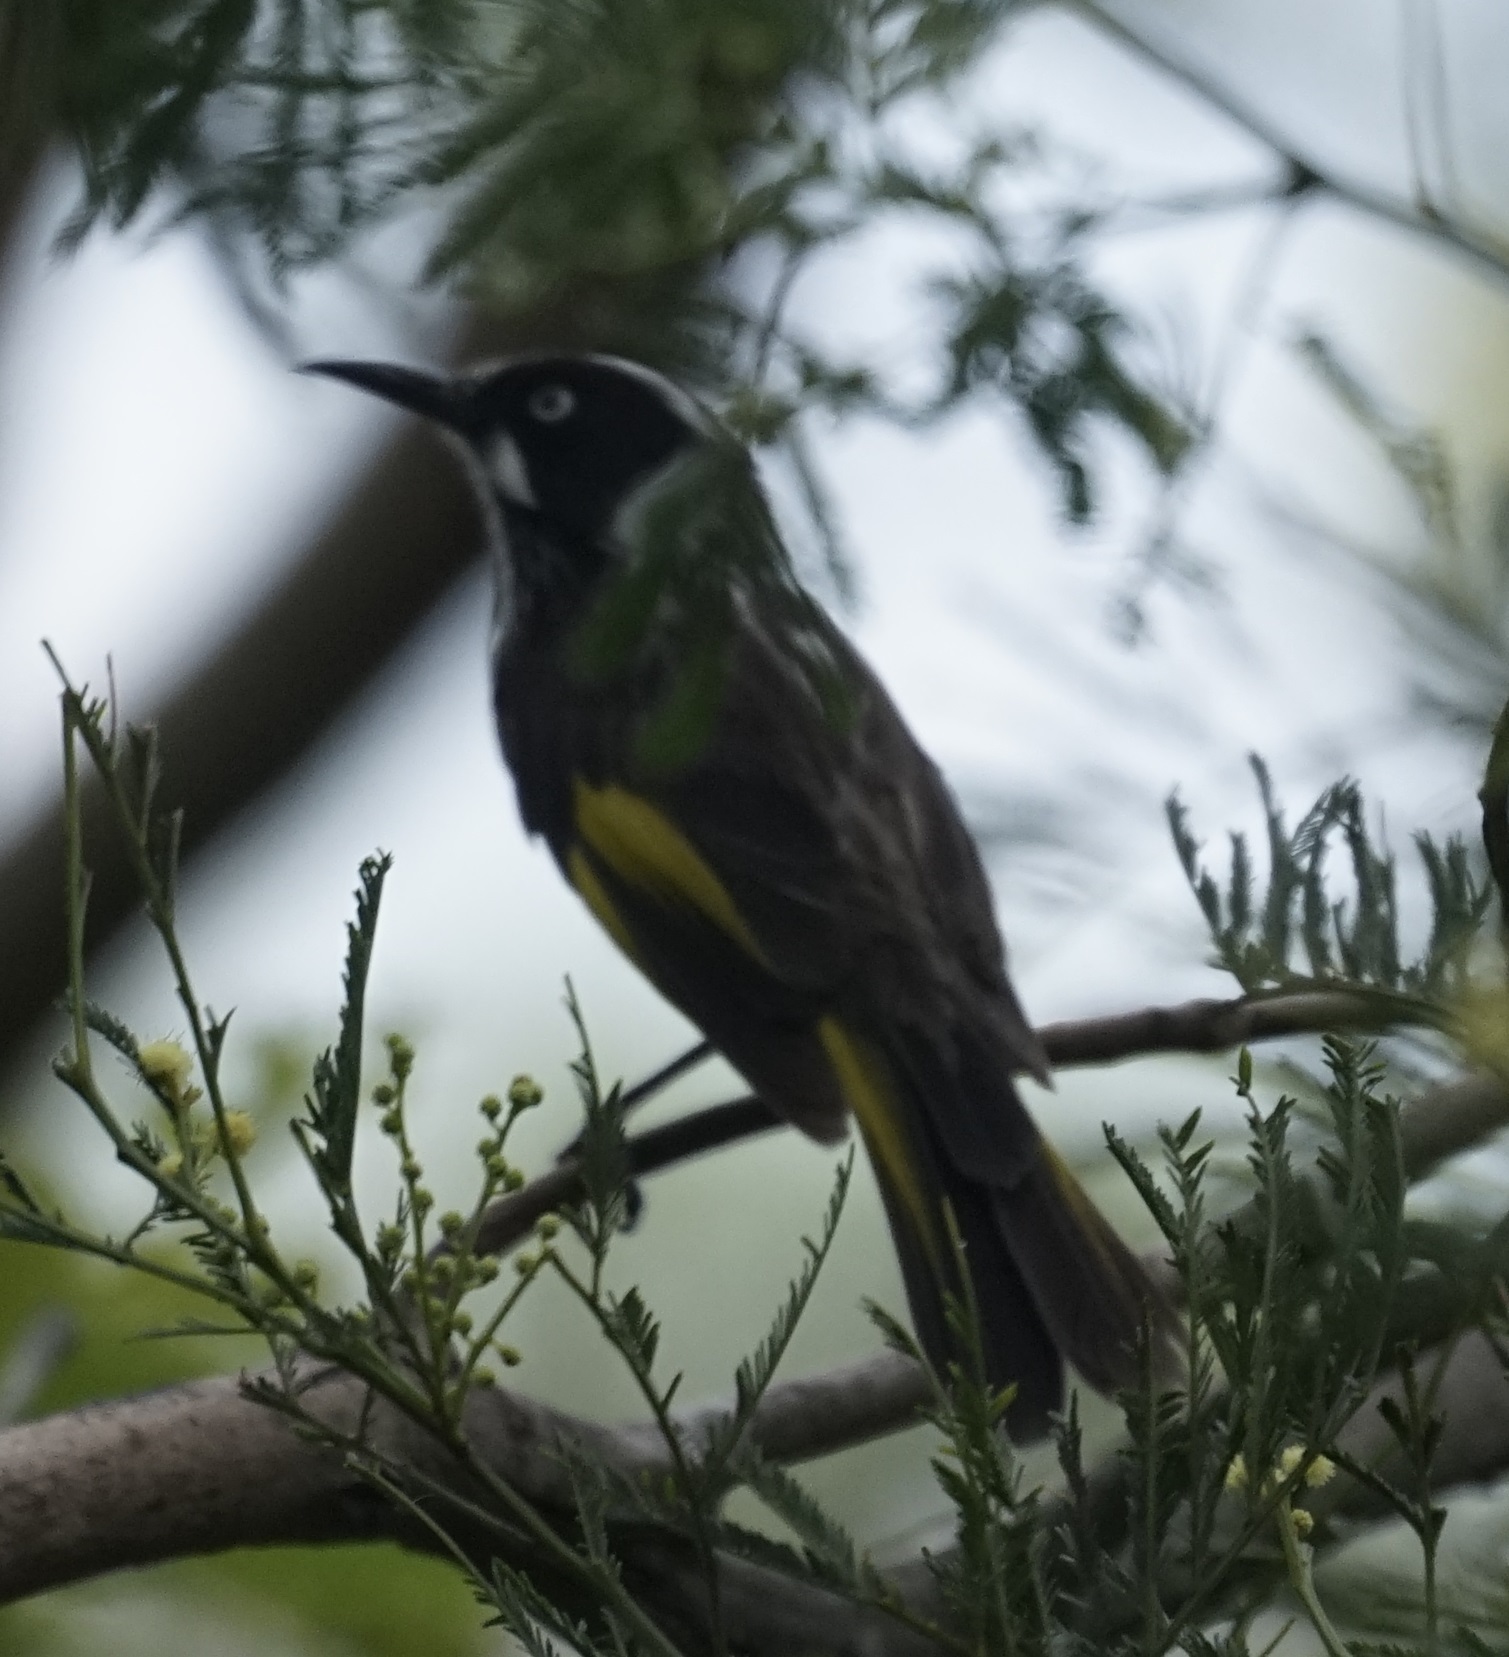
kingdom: Animalia
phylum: Chordata
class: Aves
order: Passeriformes
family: Meliphagidae
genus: Phylidonyris
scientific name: Phylidonyris novaehollandiae
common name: New holland honeyeater
